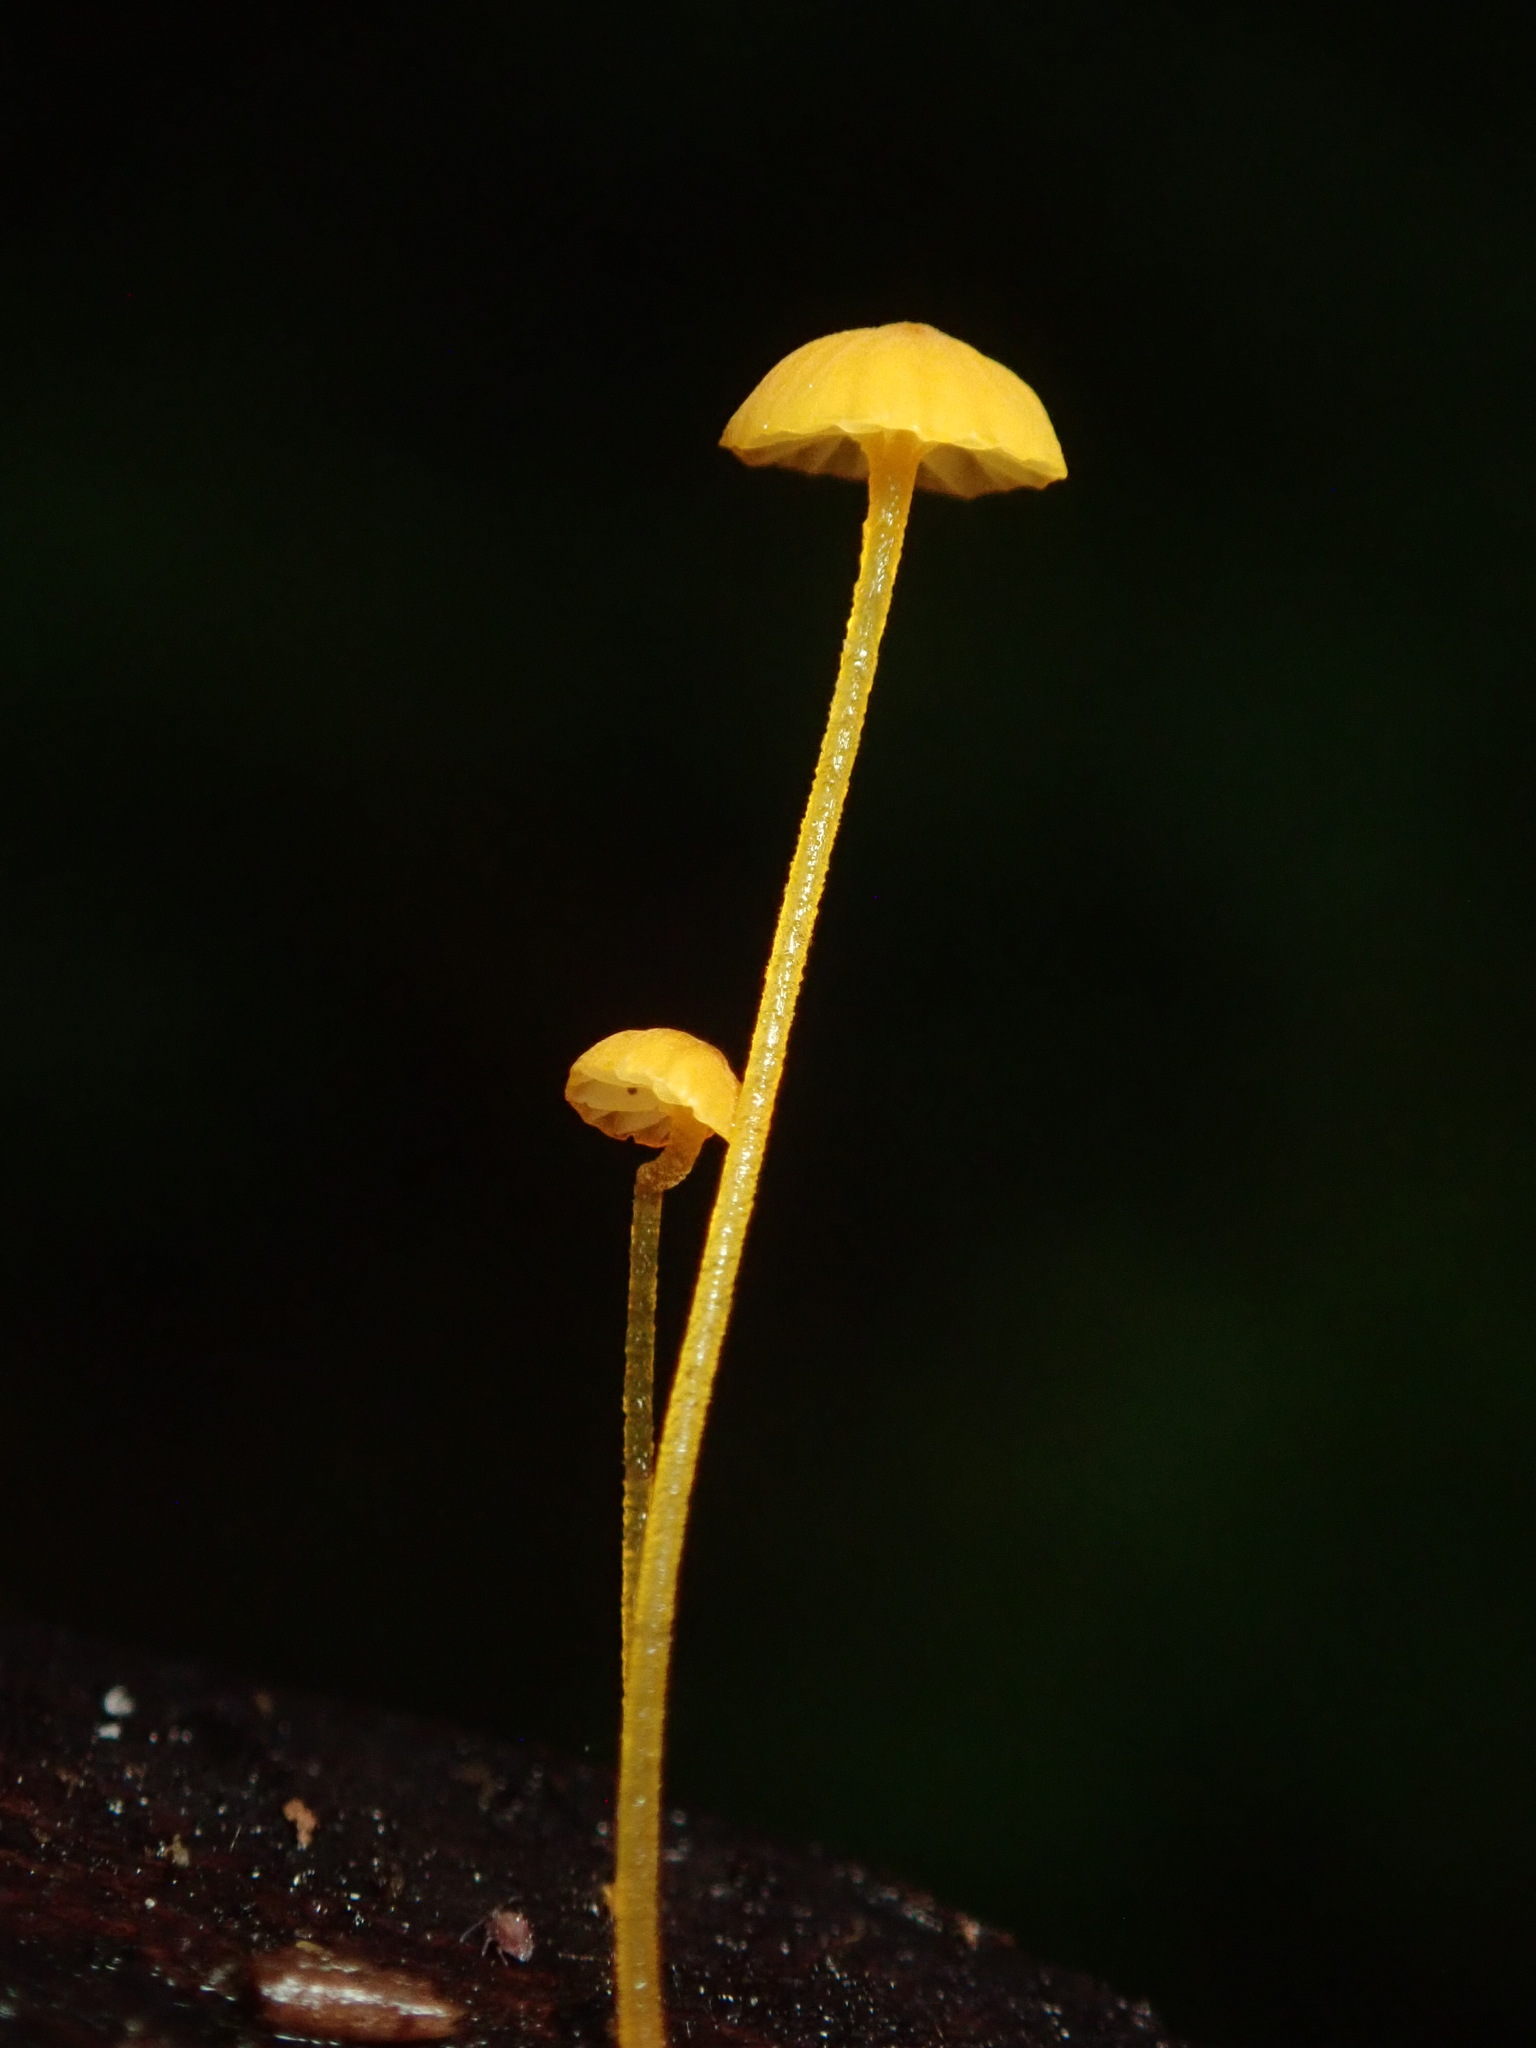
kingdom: Fungi
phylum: Basidiomycota
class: Agaricomycetes
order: Agaricales
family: Mycenaceae
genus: Mycena
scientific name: Mycena oregonensis
